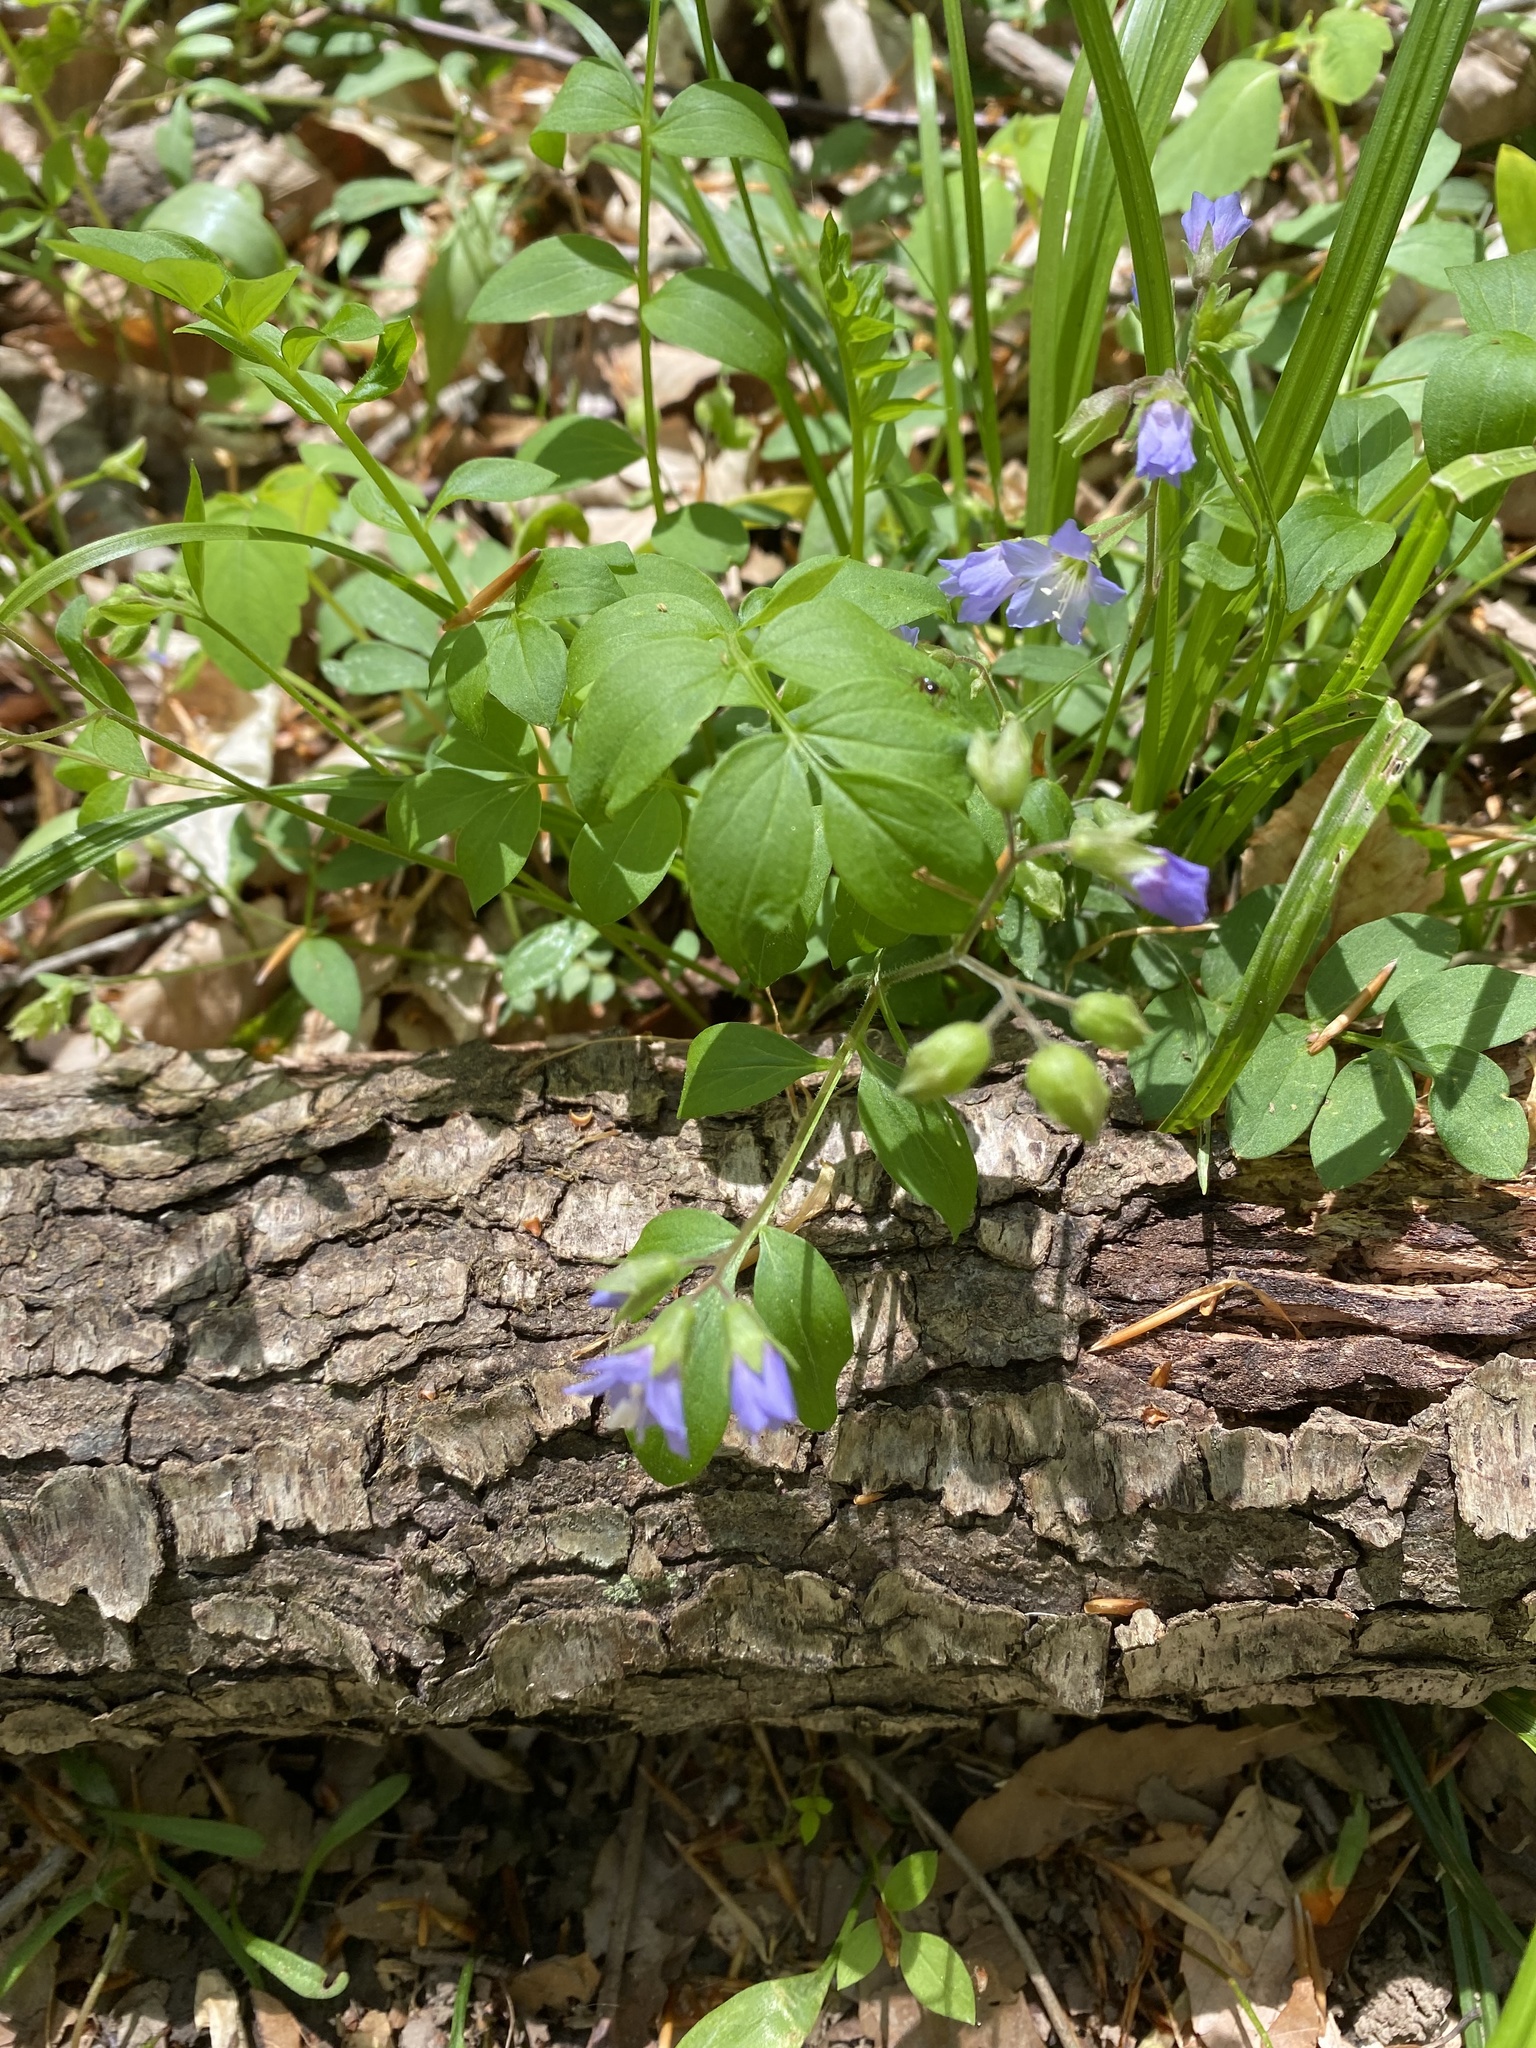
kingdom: Plantae
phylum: Tracheophyta
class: Magnoliopsida
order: Ericales
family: Polemoniaceae
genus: Polemonium
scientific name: Polemonium reptans
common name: Creeping jacob's-ladder
